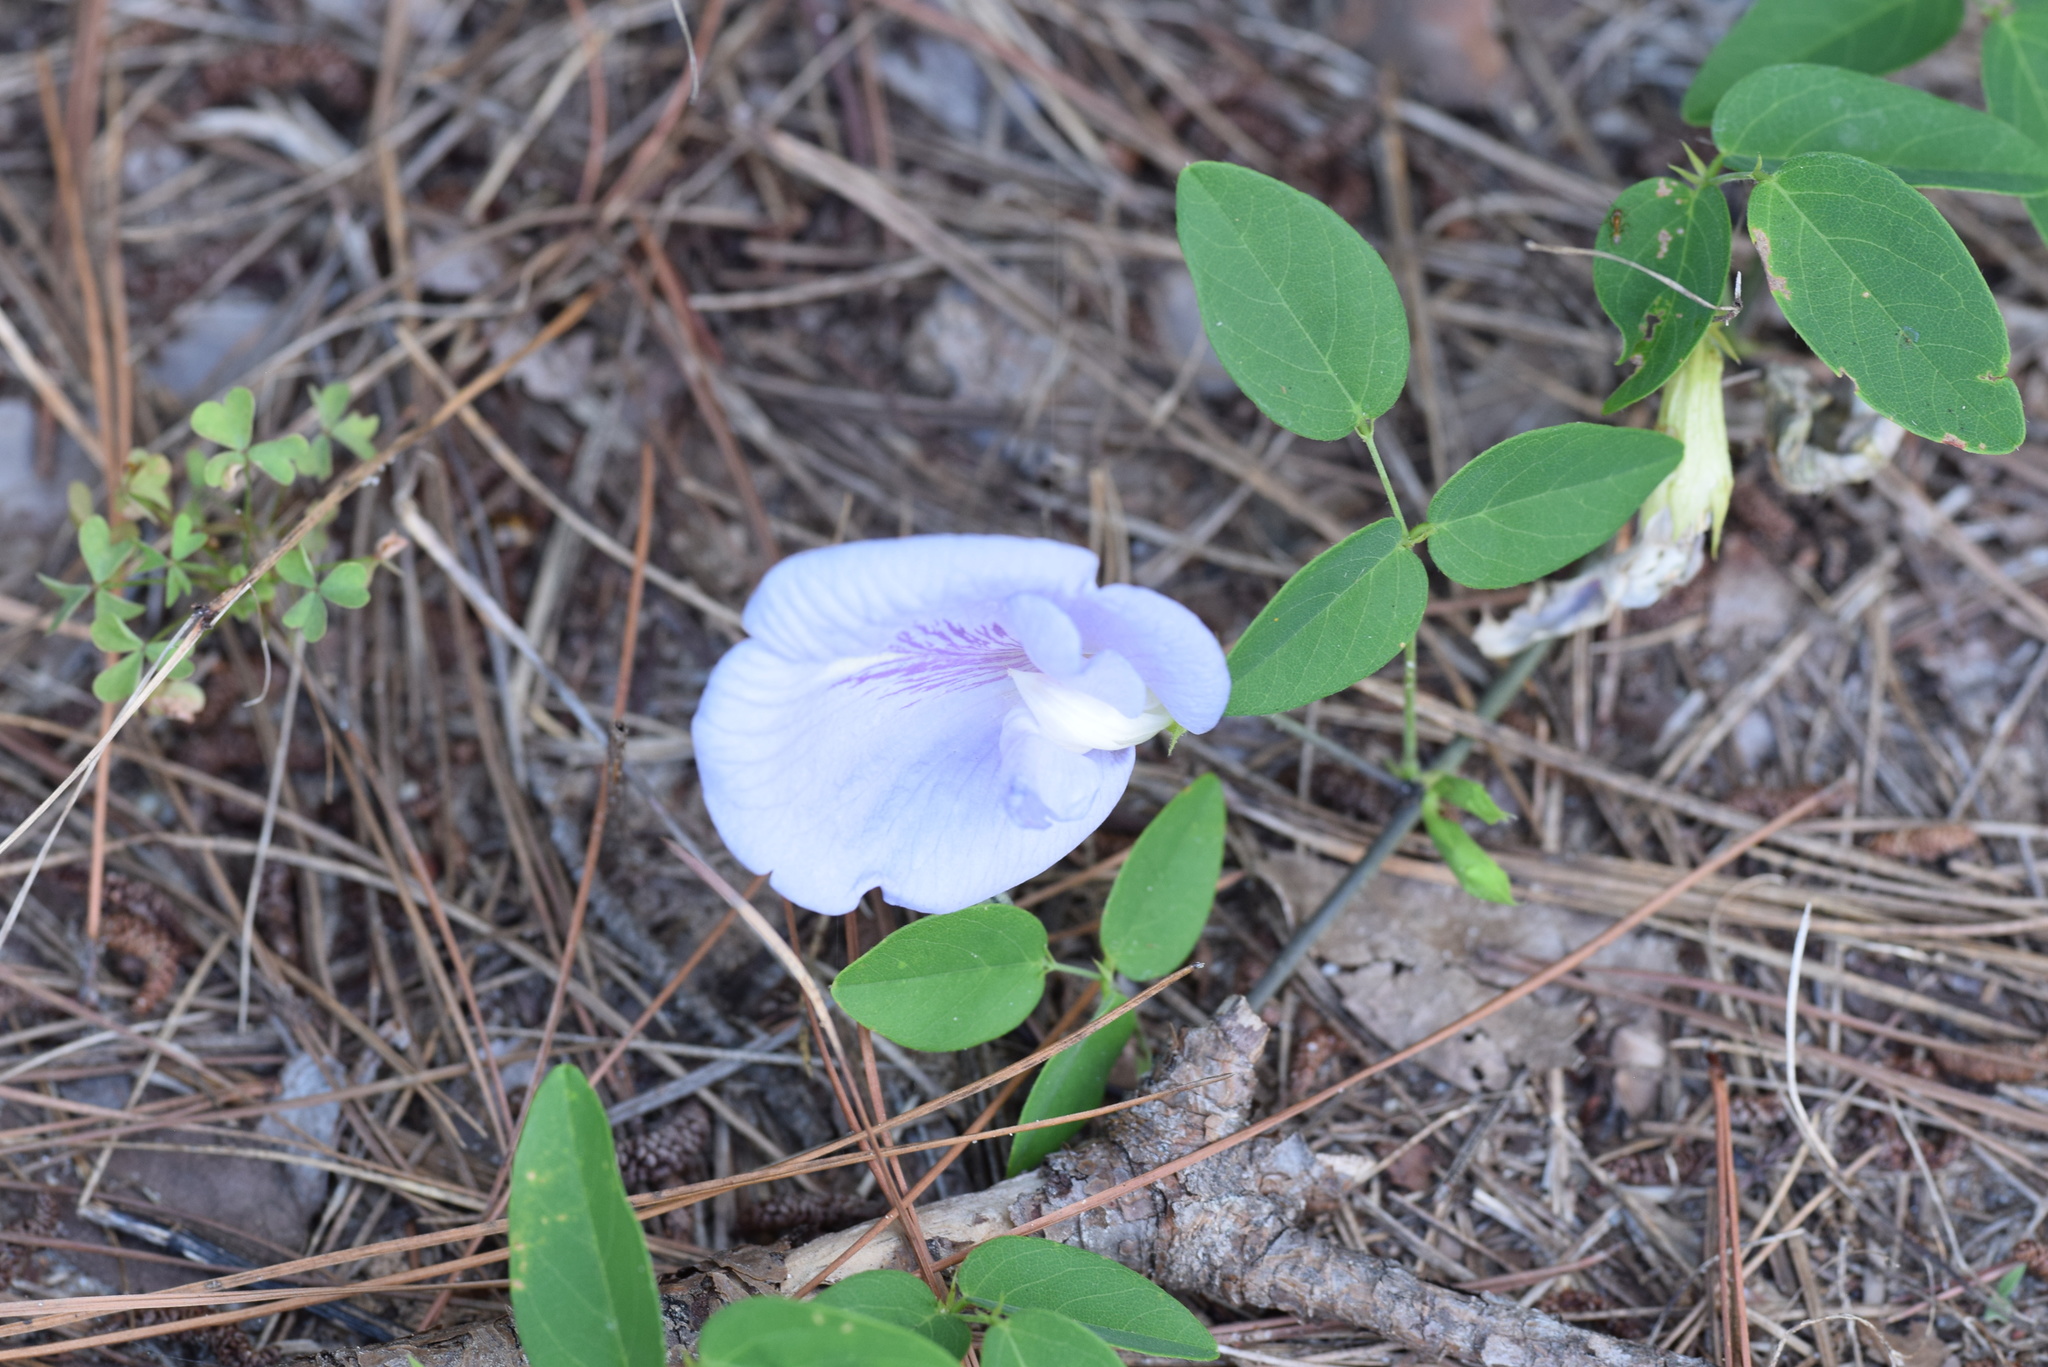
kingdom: Plantae
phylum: Tracheophyta
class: Magnoliopsida
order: Fabales
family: Fabaceae
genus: Clitoria
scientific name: Clitoria mariana
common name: Butterfly-pea
